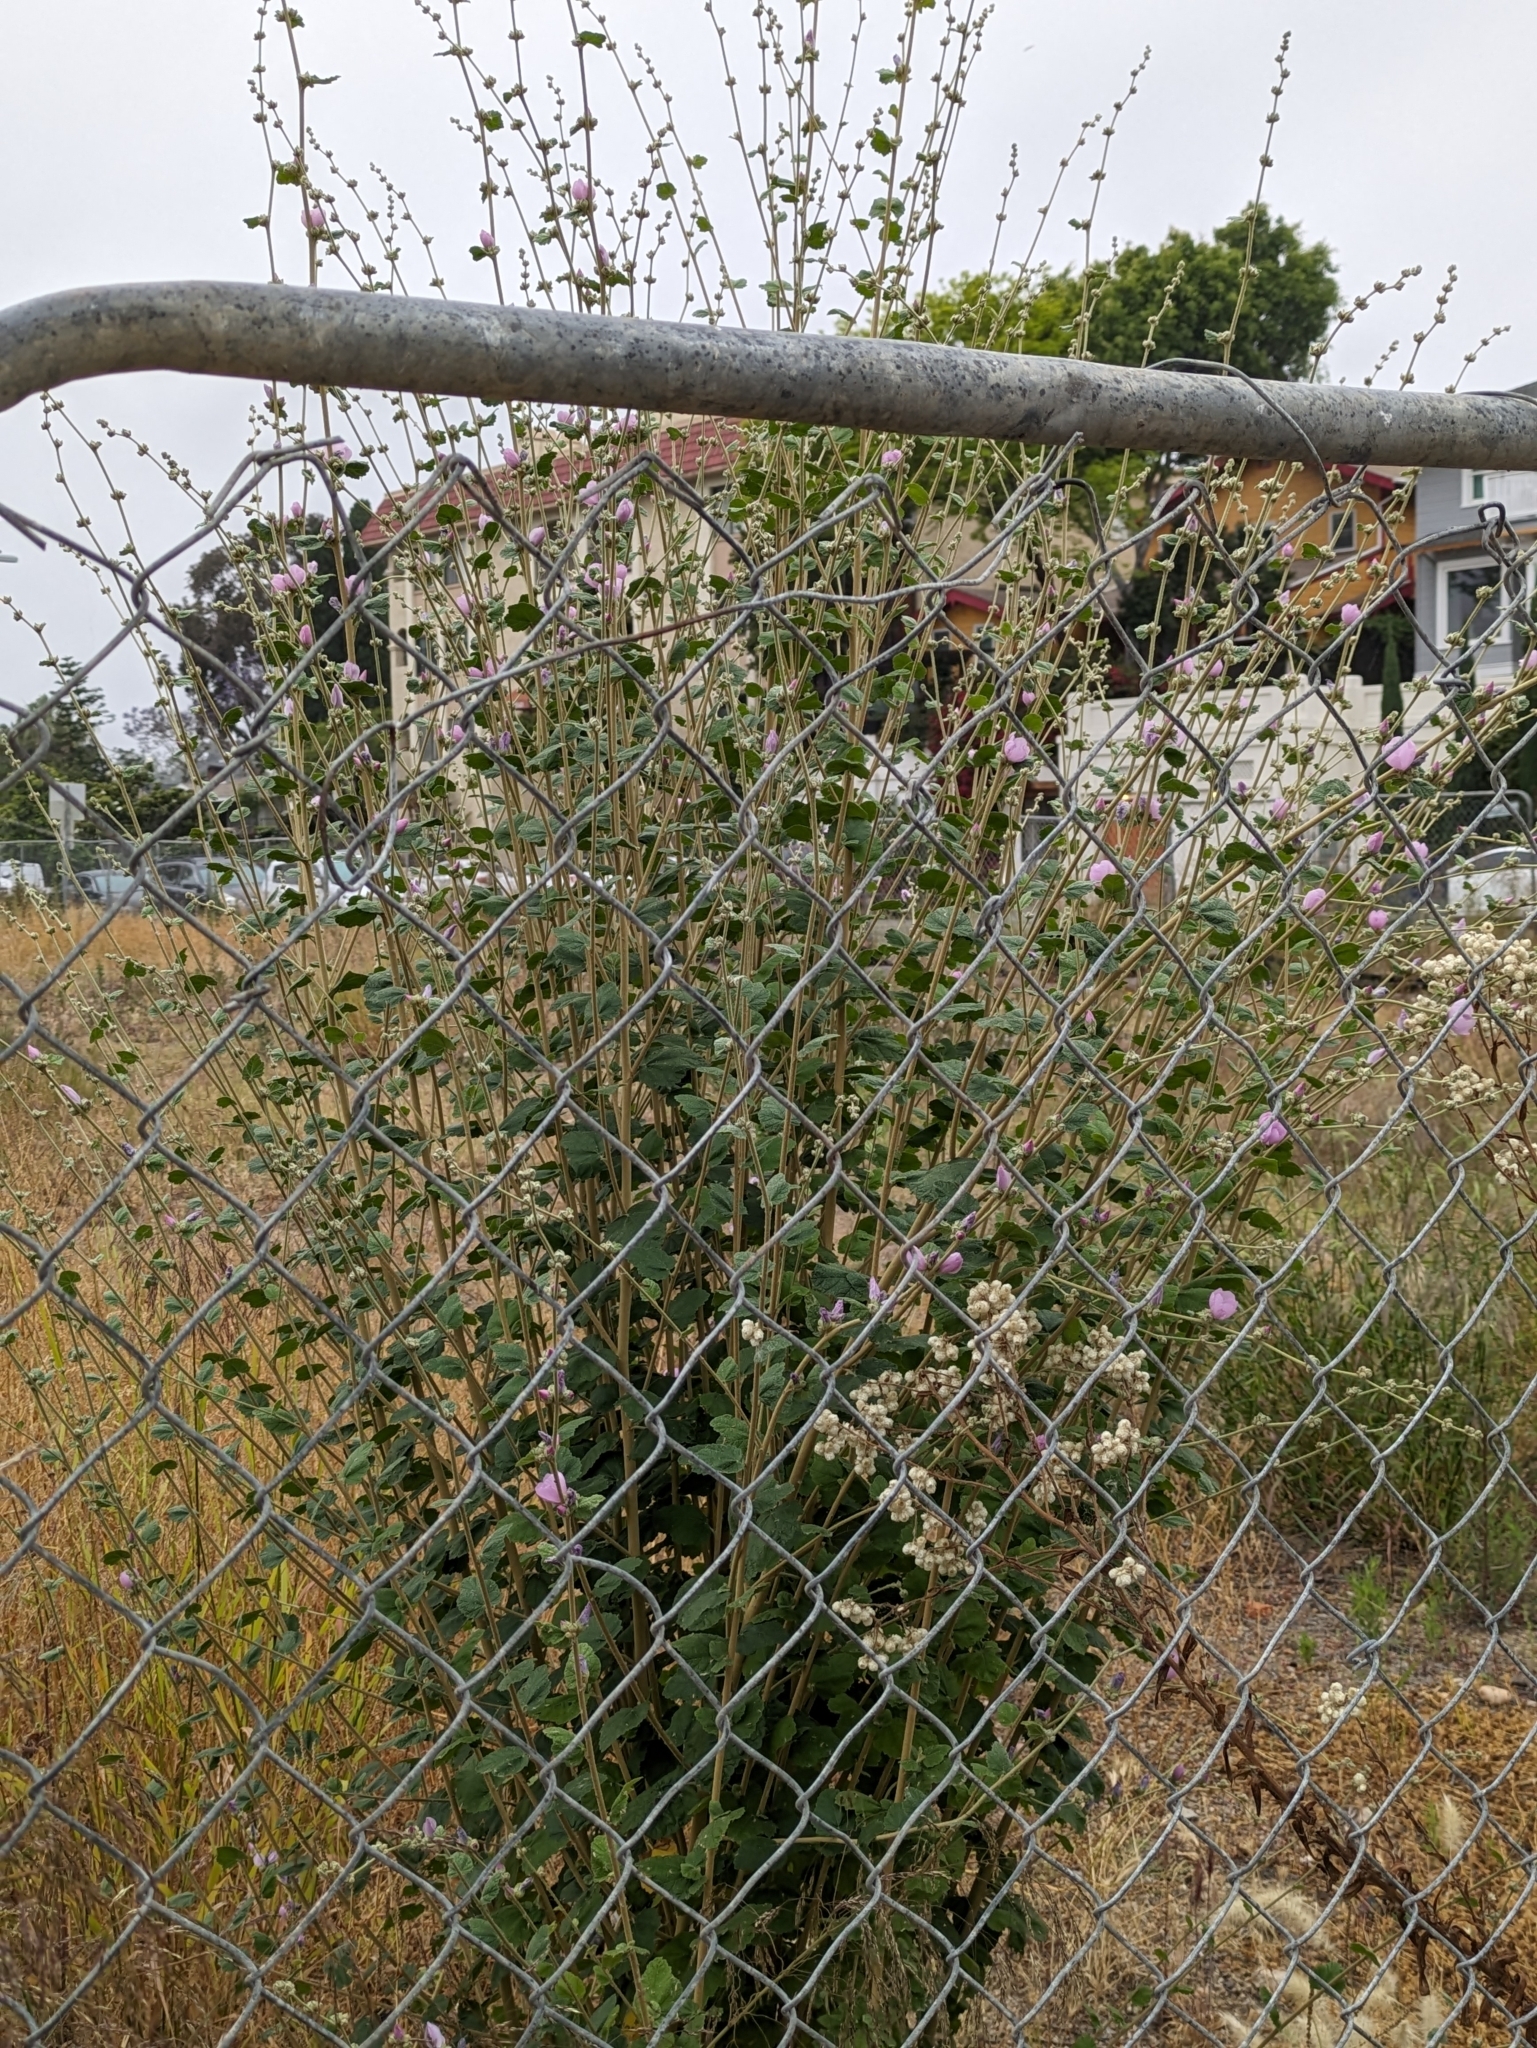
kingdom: Plantae
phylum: Tracheophyta
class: Magnoliopsida
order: Malvales
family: Malvaceae
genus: Malacothamnus
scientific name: Malacothamnus fasciculatus
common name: Sant cruz island bush-mallow
